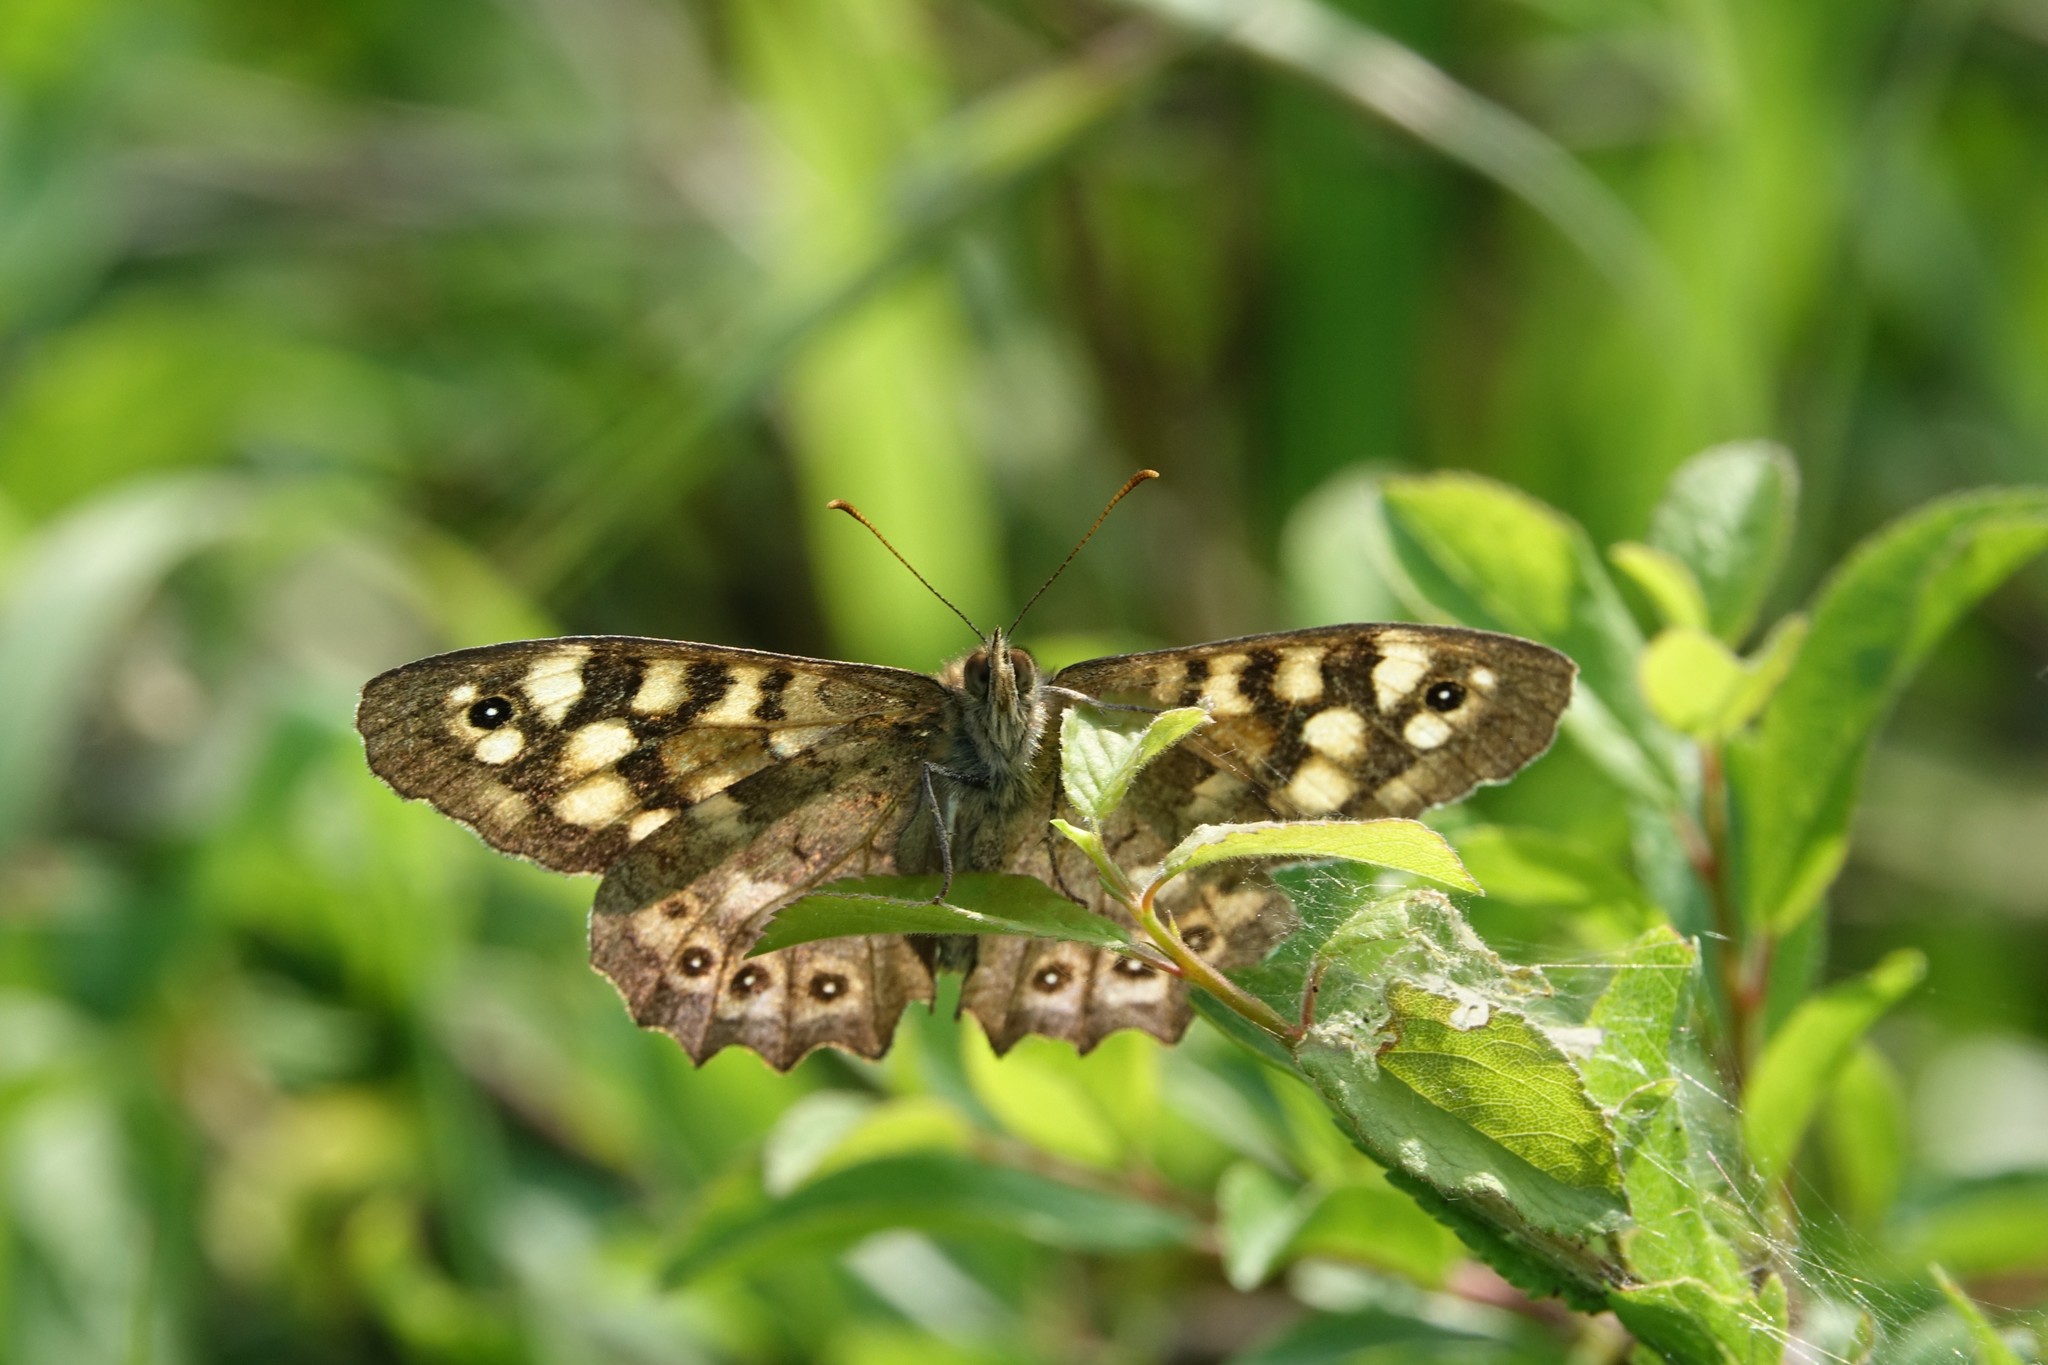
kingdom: Animalia
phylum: Arthropoda
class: Insecta
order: Lepidoptera
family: Nymphalidae
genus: Pararge
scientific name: Pararge aegeria
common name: Speckled wood
